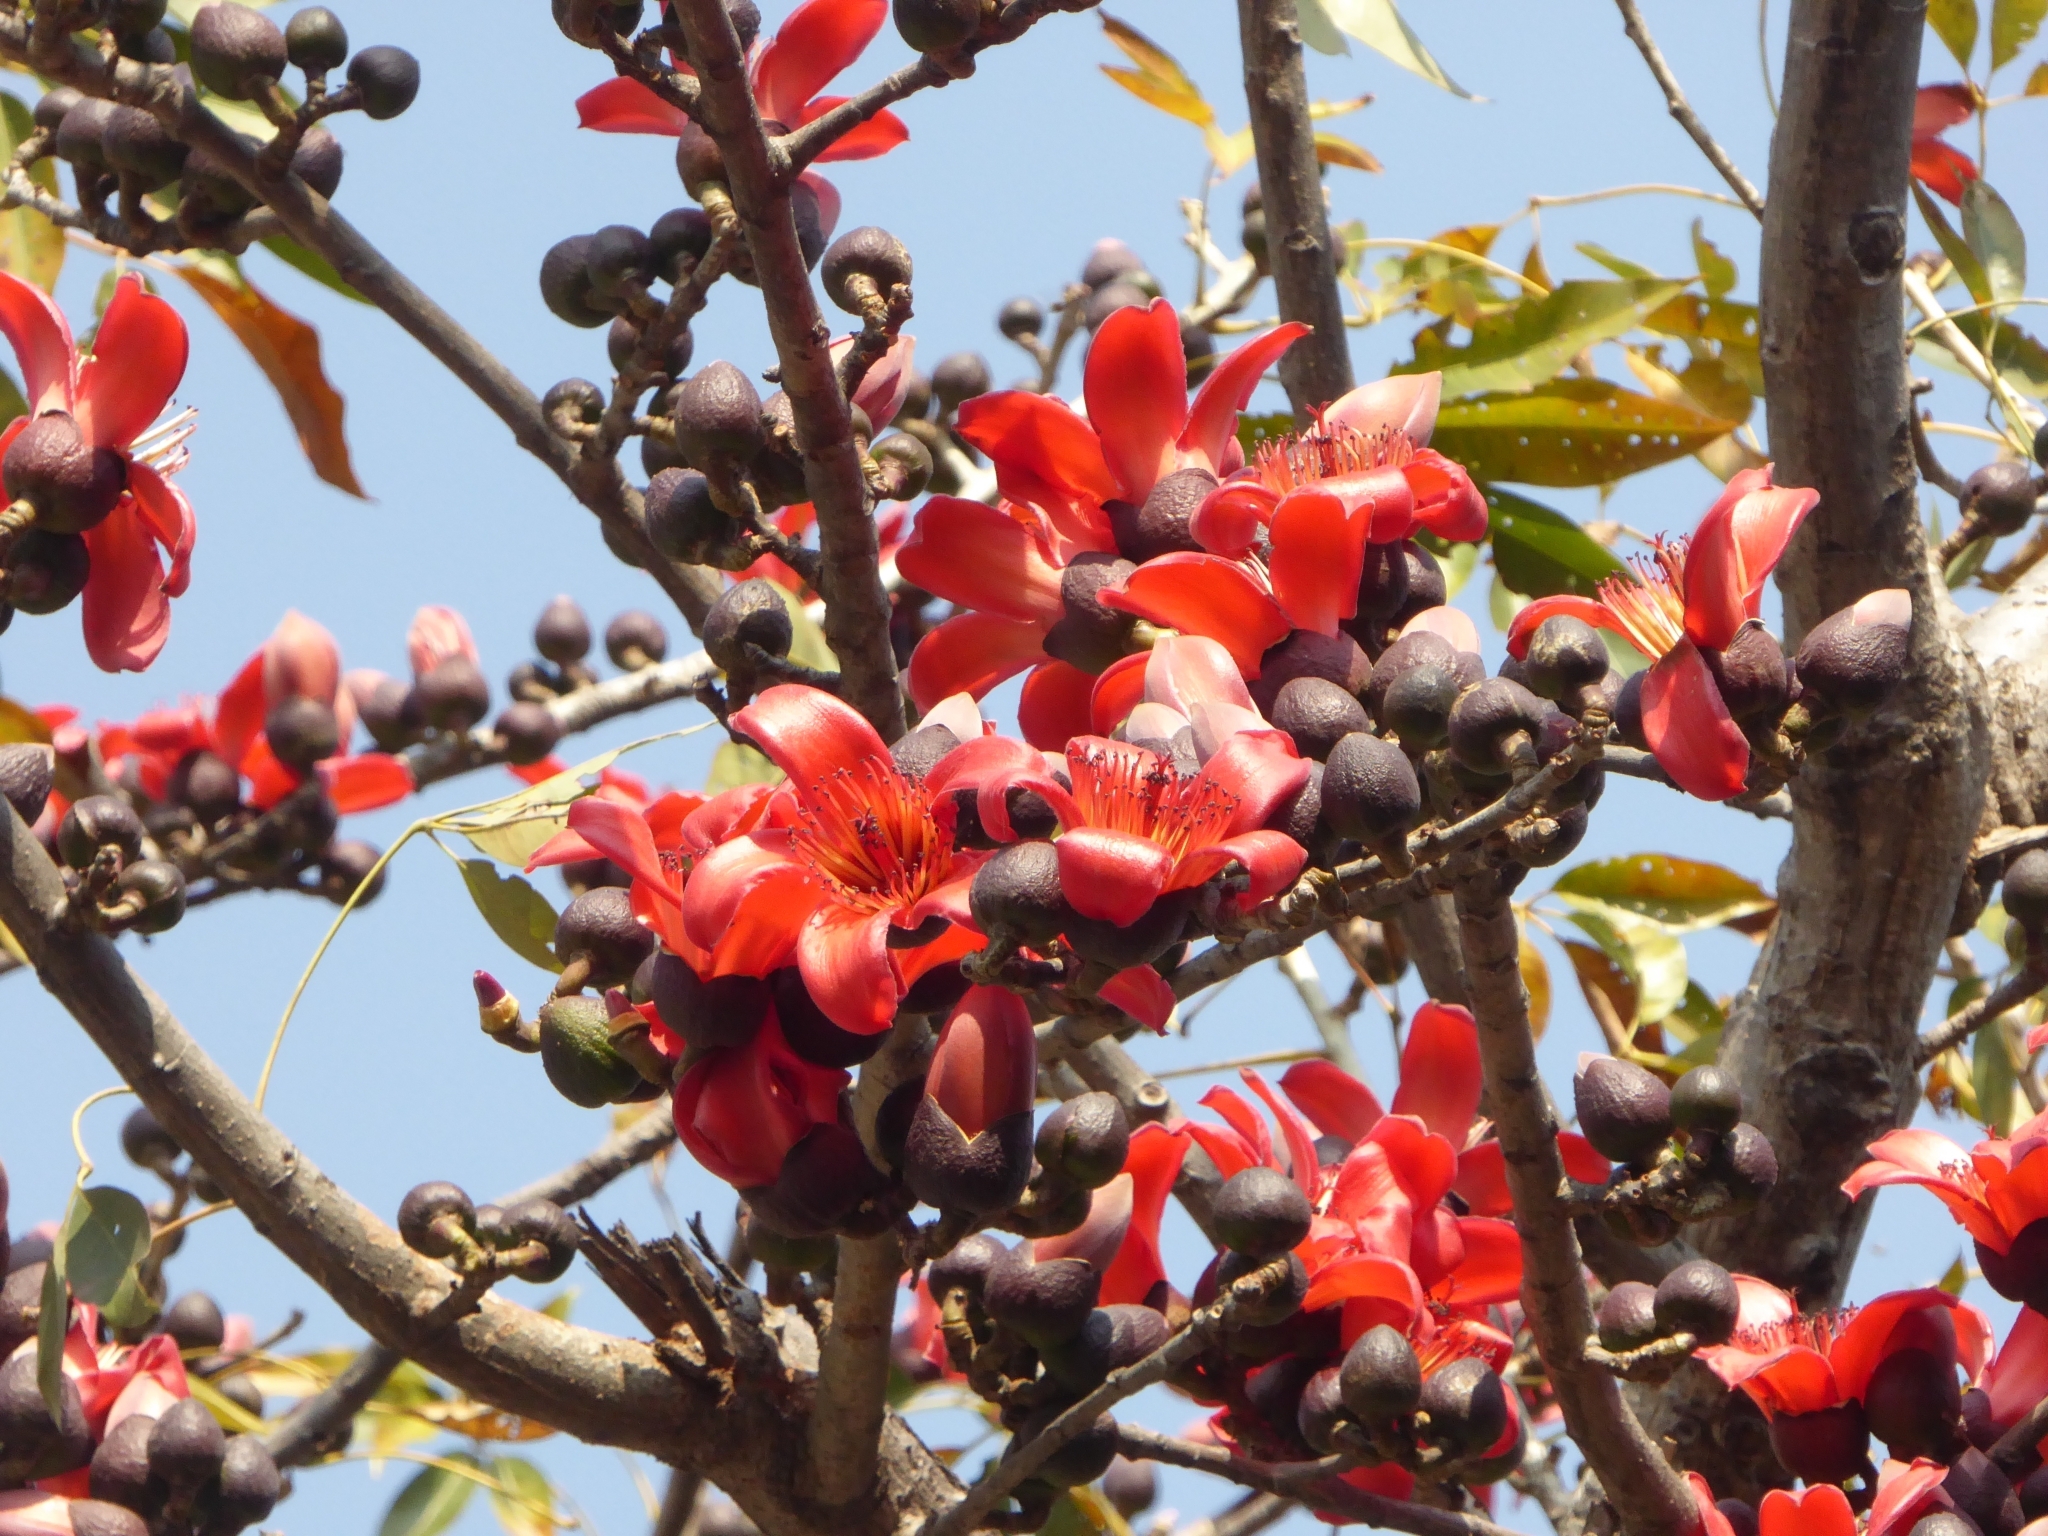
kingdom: Plantae
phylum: Tracheophyta
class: Magnoliopsida
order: Malvales
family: Malvaceae
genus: Bombax
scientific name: Bombax ceiba
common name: Northern-cottonwood
